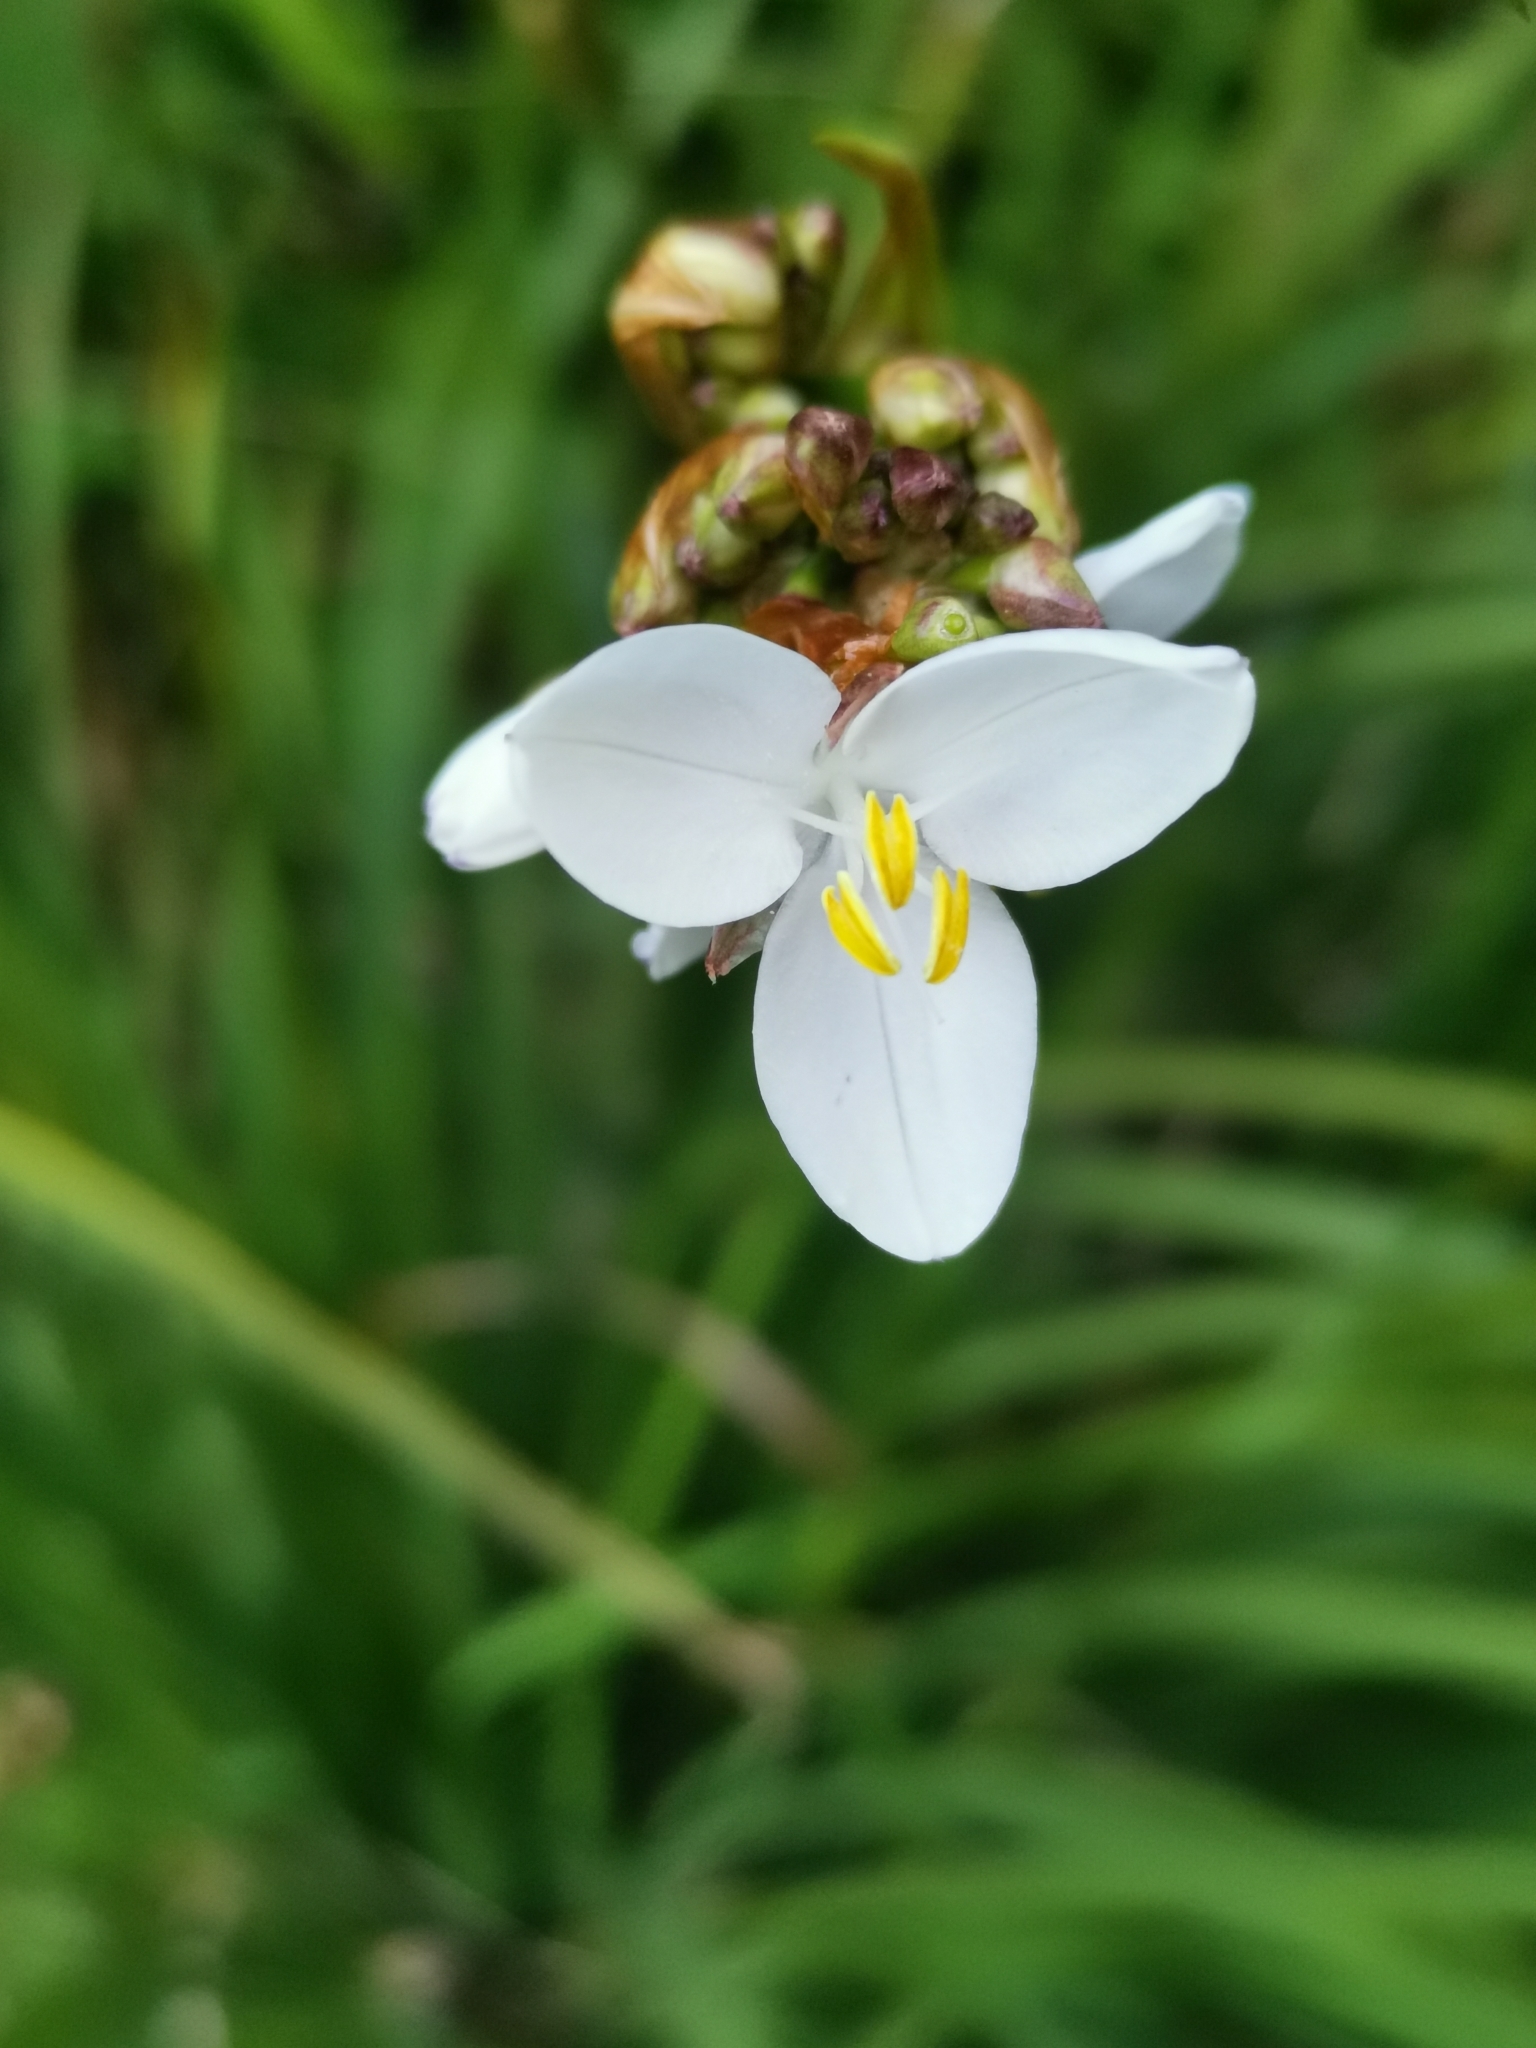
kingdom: Plantae
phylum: Tracheophyta
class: Liliopsida
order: Asparagales
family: Iridaceae
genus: Libertia
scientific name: Libertia chilensis
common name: Satin flower
